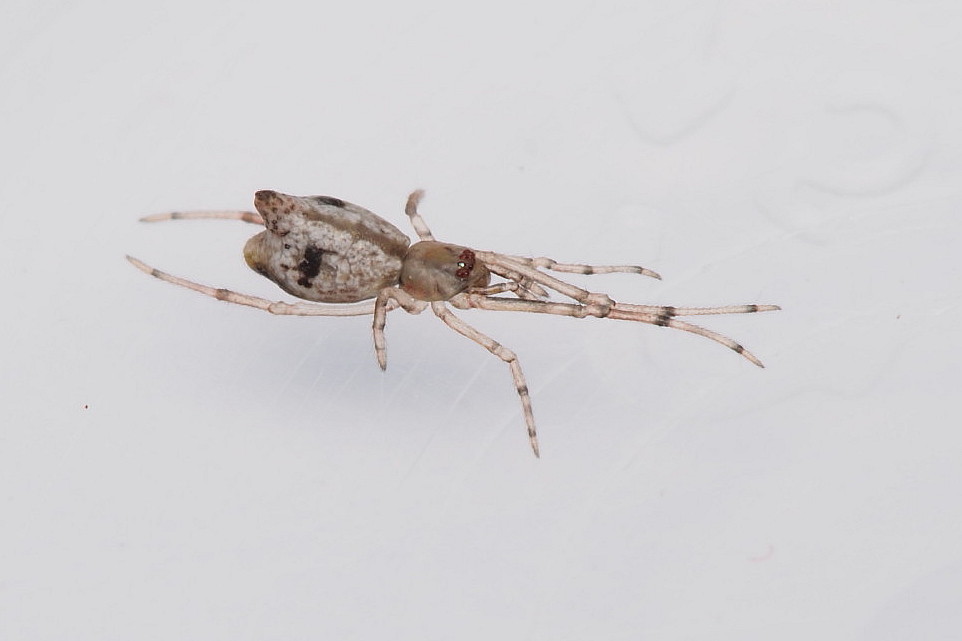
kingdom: Animalia
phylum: Arthropoda
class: Arachnida
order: Araneae
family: Theridiidae
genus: Moneta
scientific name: Moneta conifera
